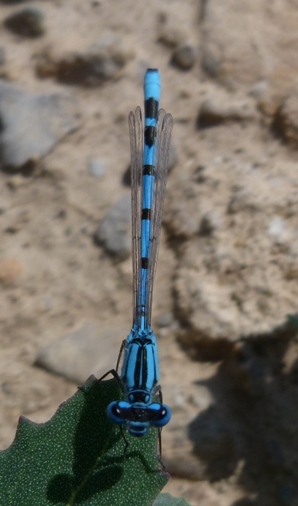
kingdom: Animalia
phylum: Arthropoda
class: Insecta
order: Odonata
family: Coenagrionidae
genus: Enallagma
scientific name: Enallagma cyathigerum
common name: Common blue damselfly
